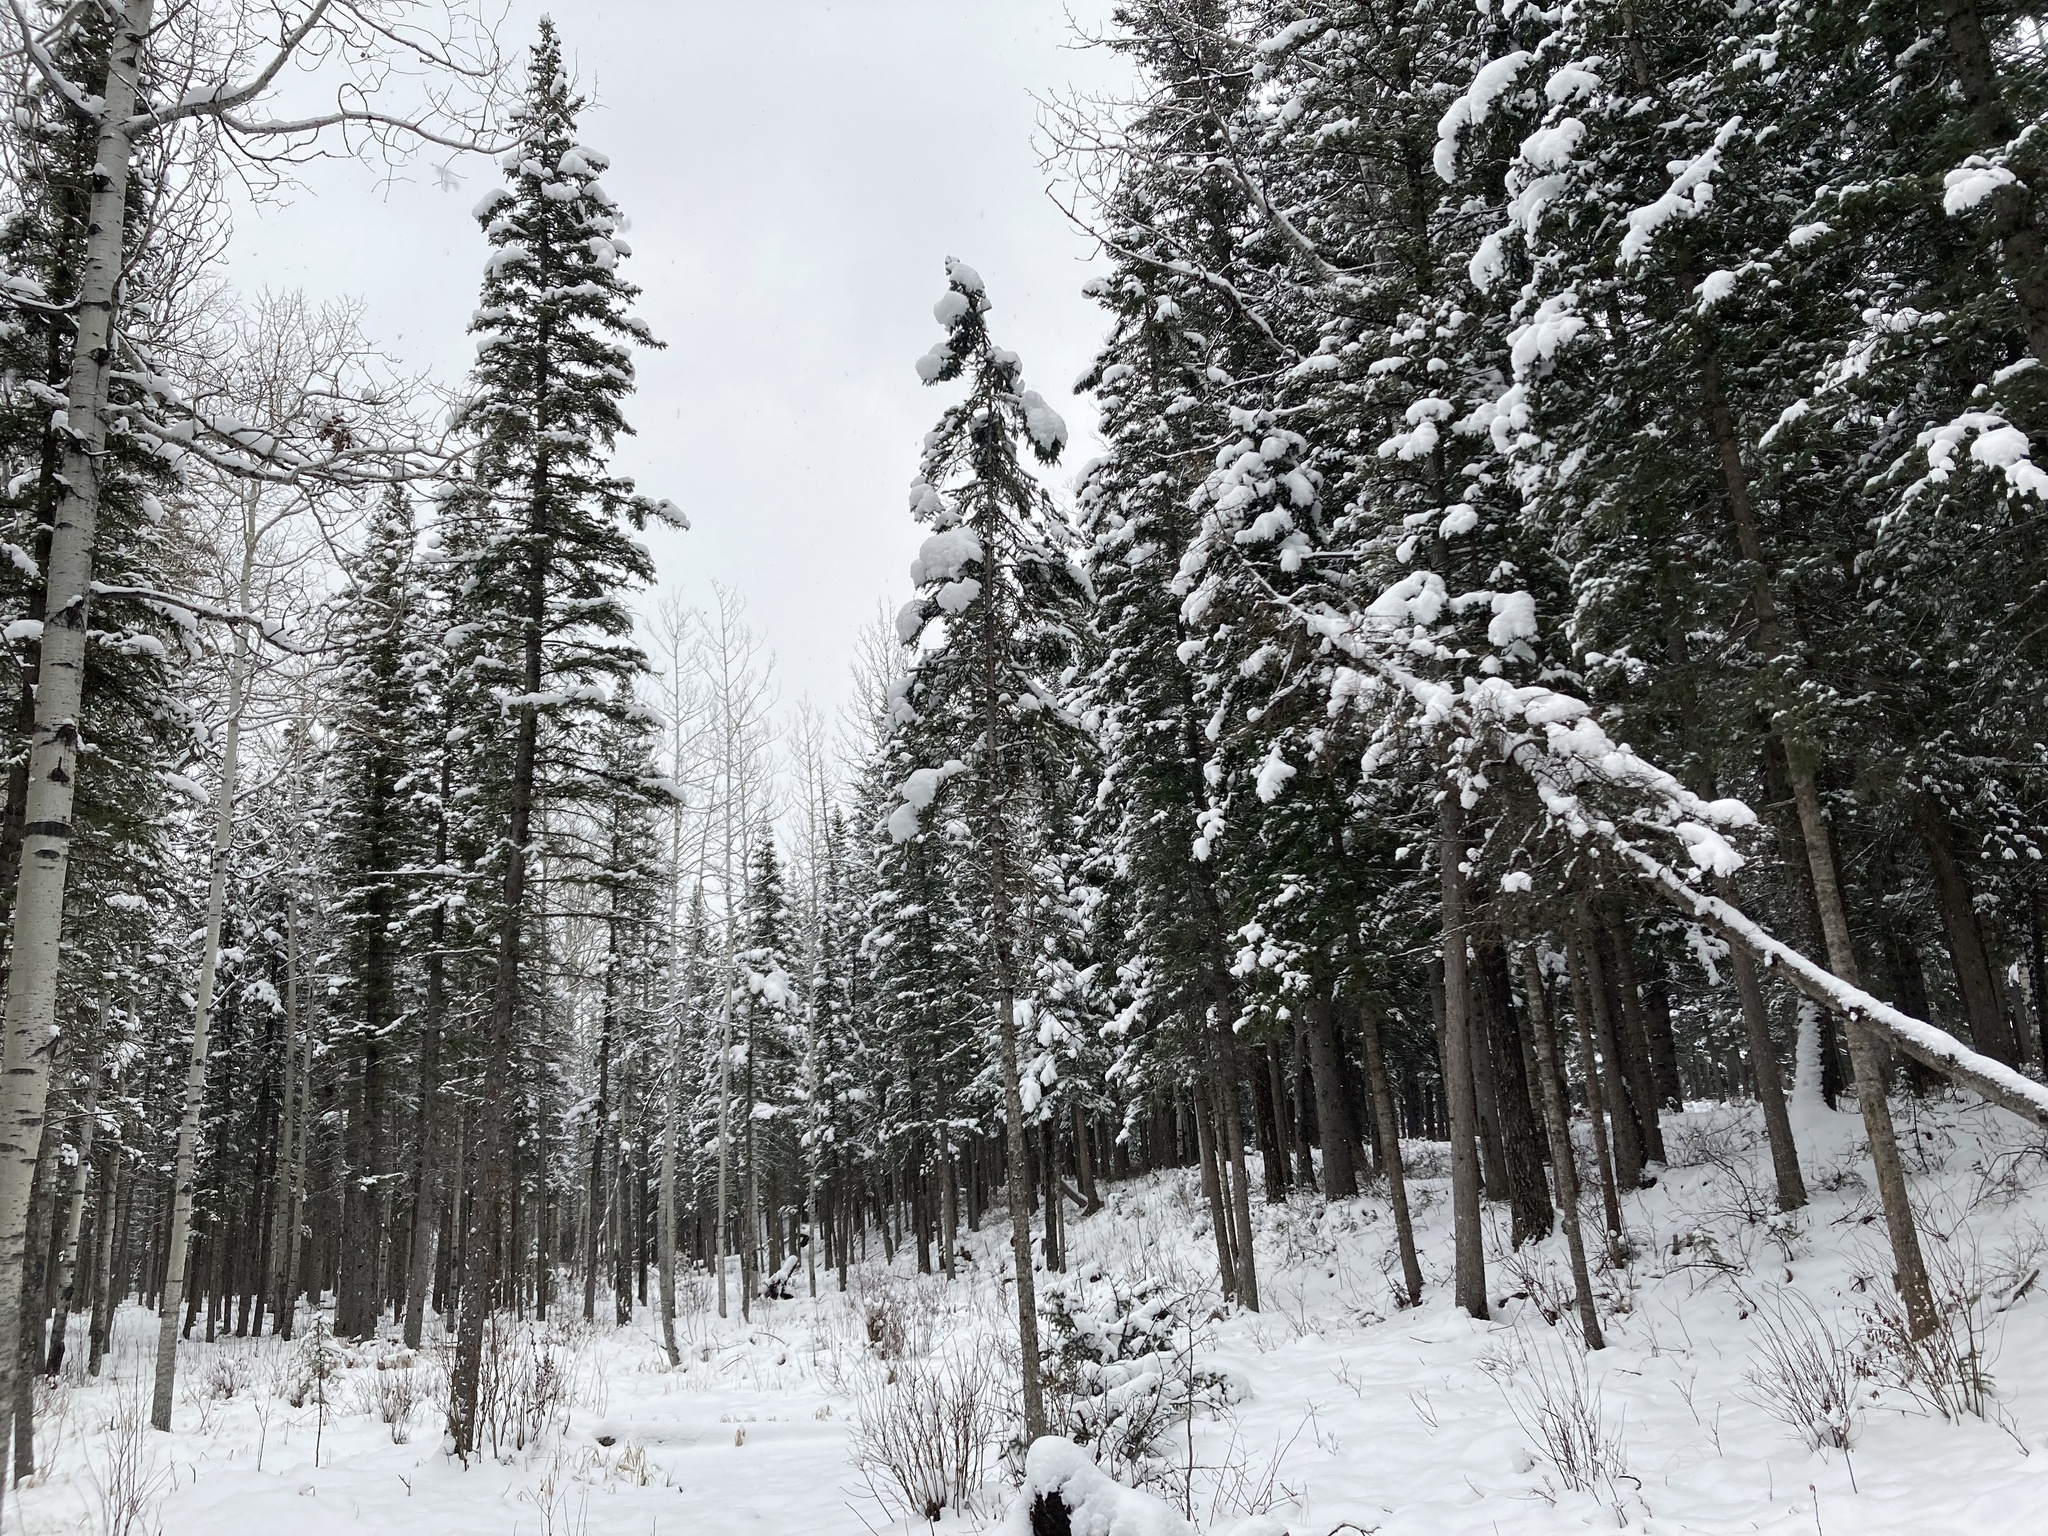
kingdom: Plantae
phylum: Tracheophyta
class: Pinopsida
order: Pinales
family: Pinaceae
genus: Picea
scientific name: Picea glauca
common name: White spruce
